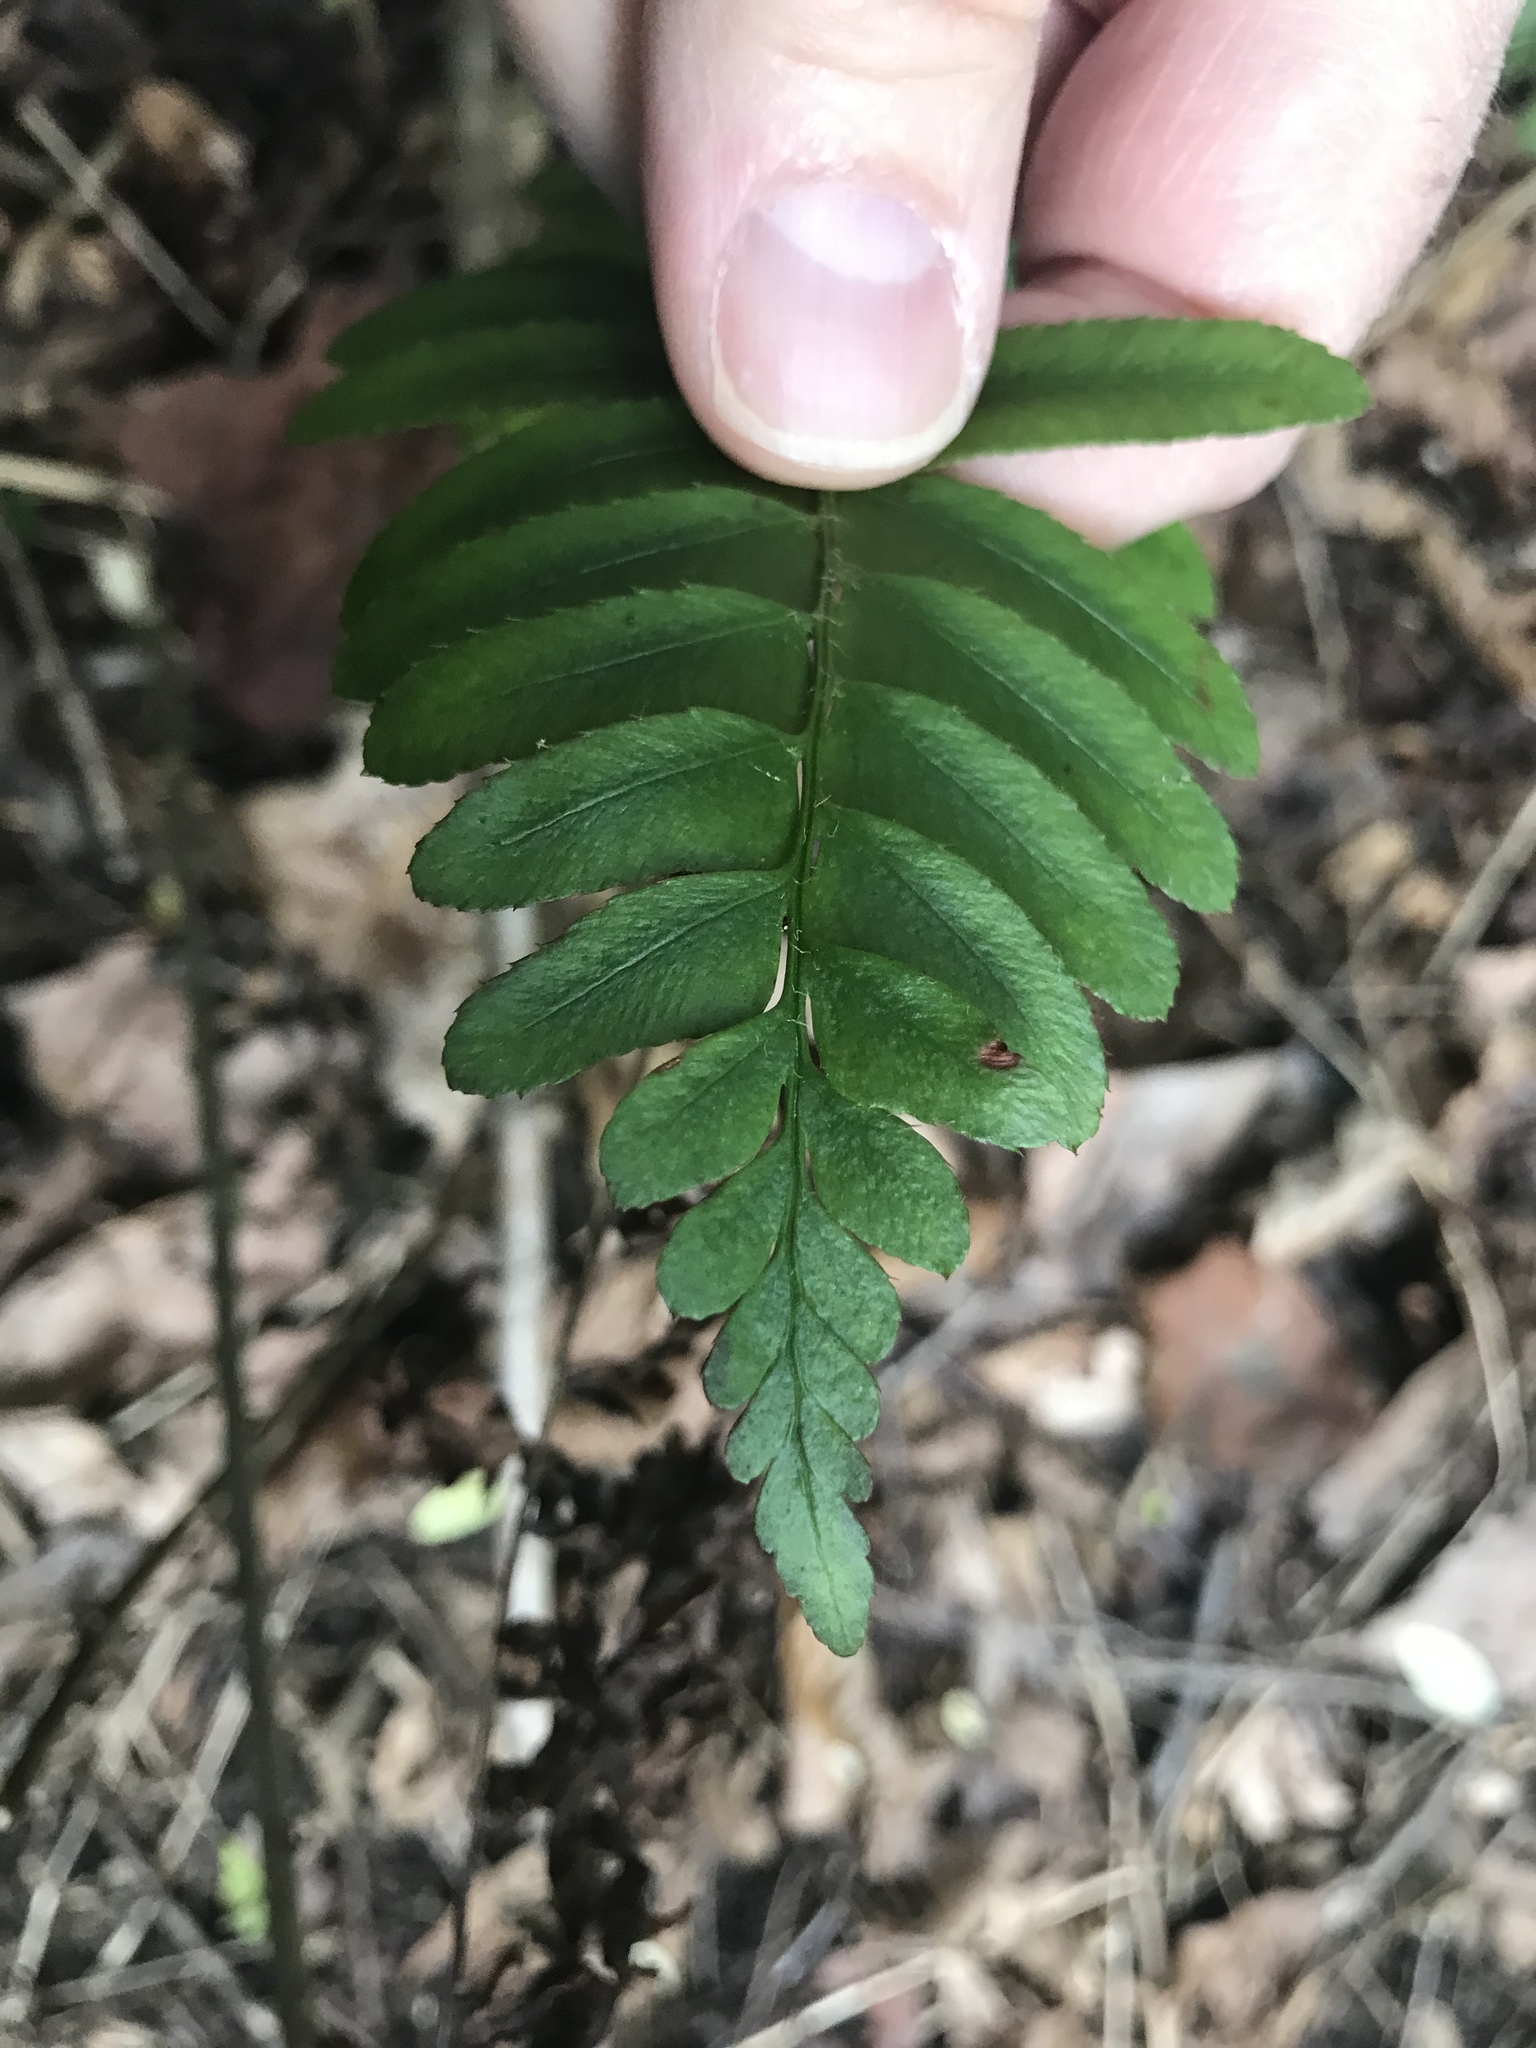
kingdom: Plantae
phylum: Tracheophyta
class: Polypodiopsida
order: Polypodiales
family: Dryopteridaceae
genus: Polystichum
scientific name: Polystichum acrostichoides
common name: Christmas fern
